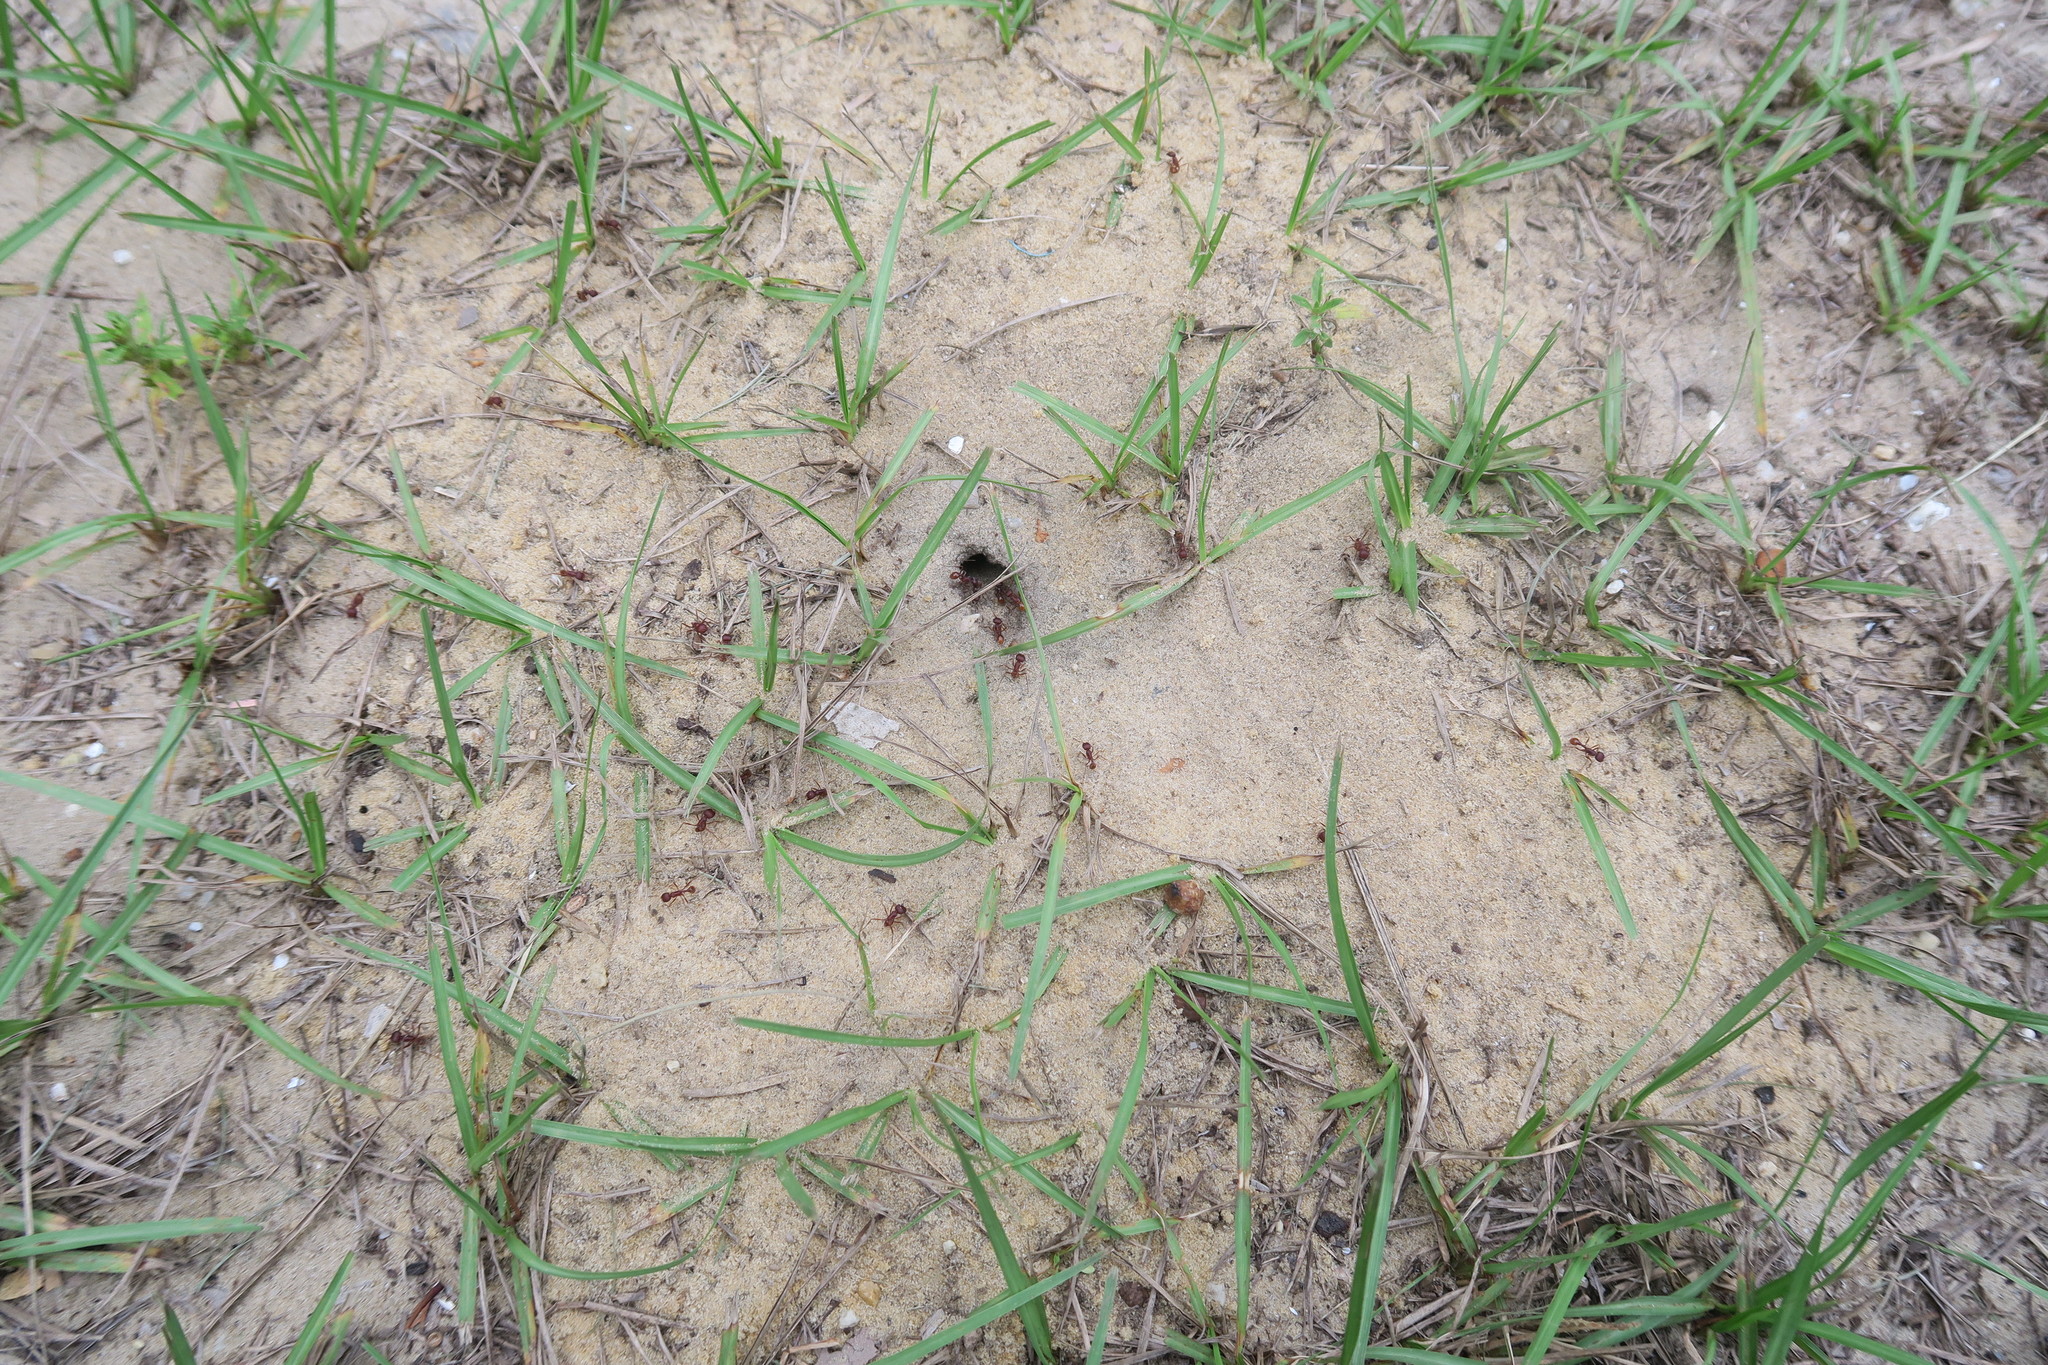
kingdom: Animalia
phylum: Arthropoda
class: Insecta
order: Hymenoptera
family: Formicidae
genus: Pogonomyrmex
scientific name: Pogonomyrmex badius
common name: Florida harvester ant
